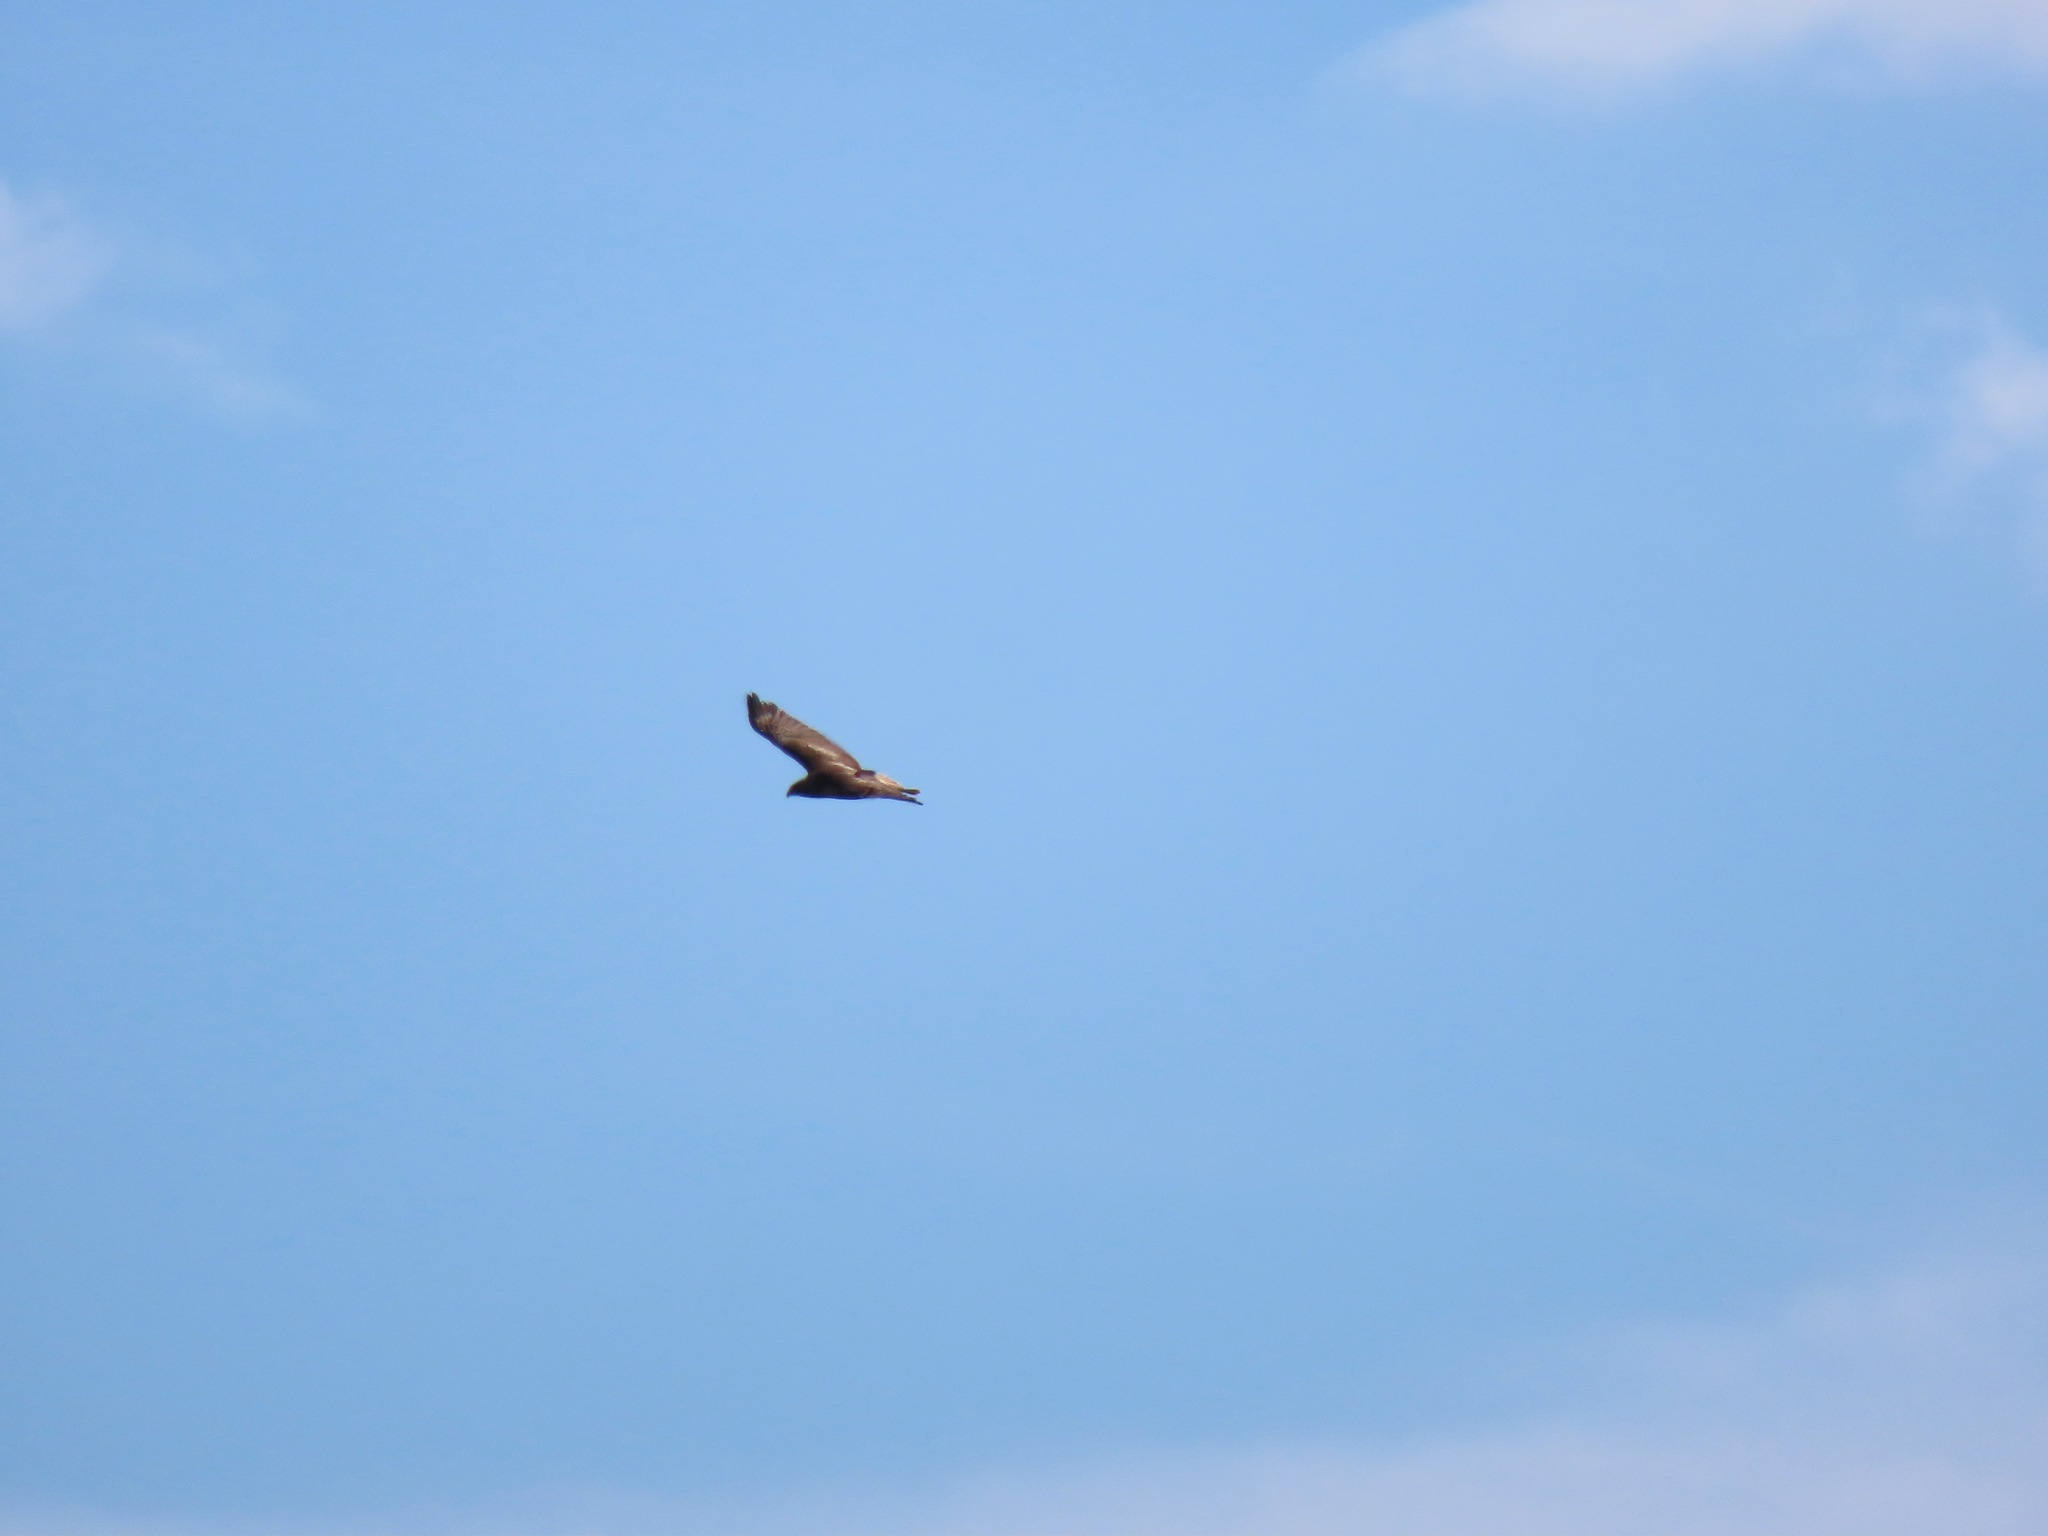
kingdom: Animalia
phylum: Chordata
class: Aves
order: Accipitriformes
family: Accipitridae
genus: Buteo
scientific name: Buteo jamaicensis
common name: Red-tailed hawk
